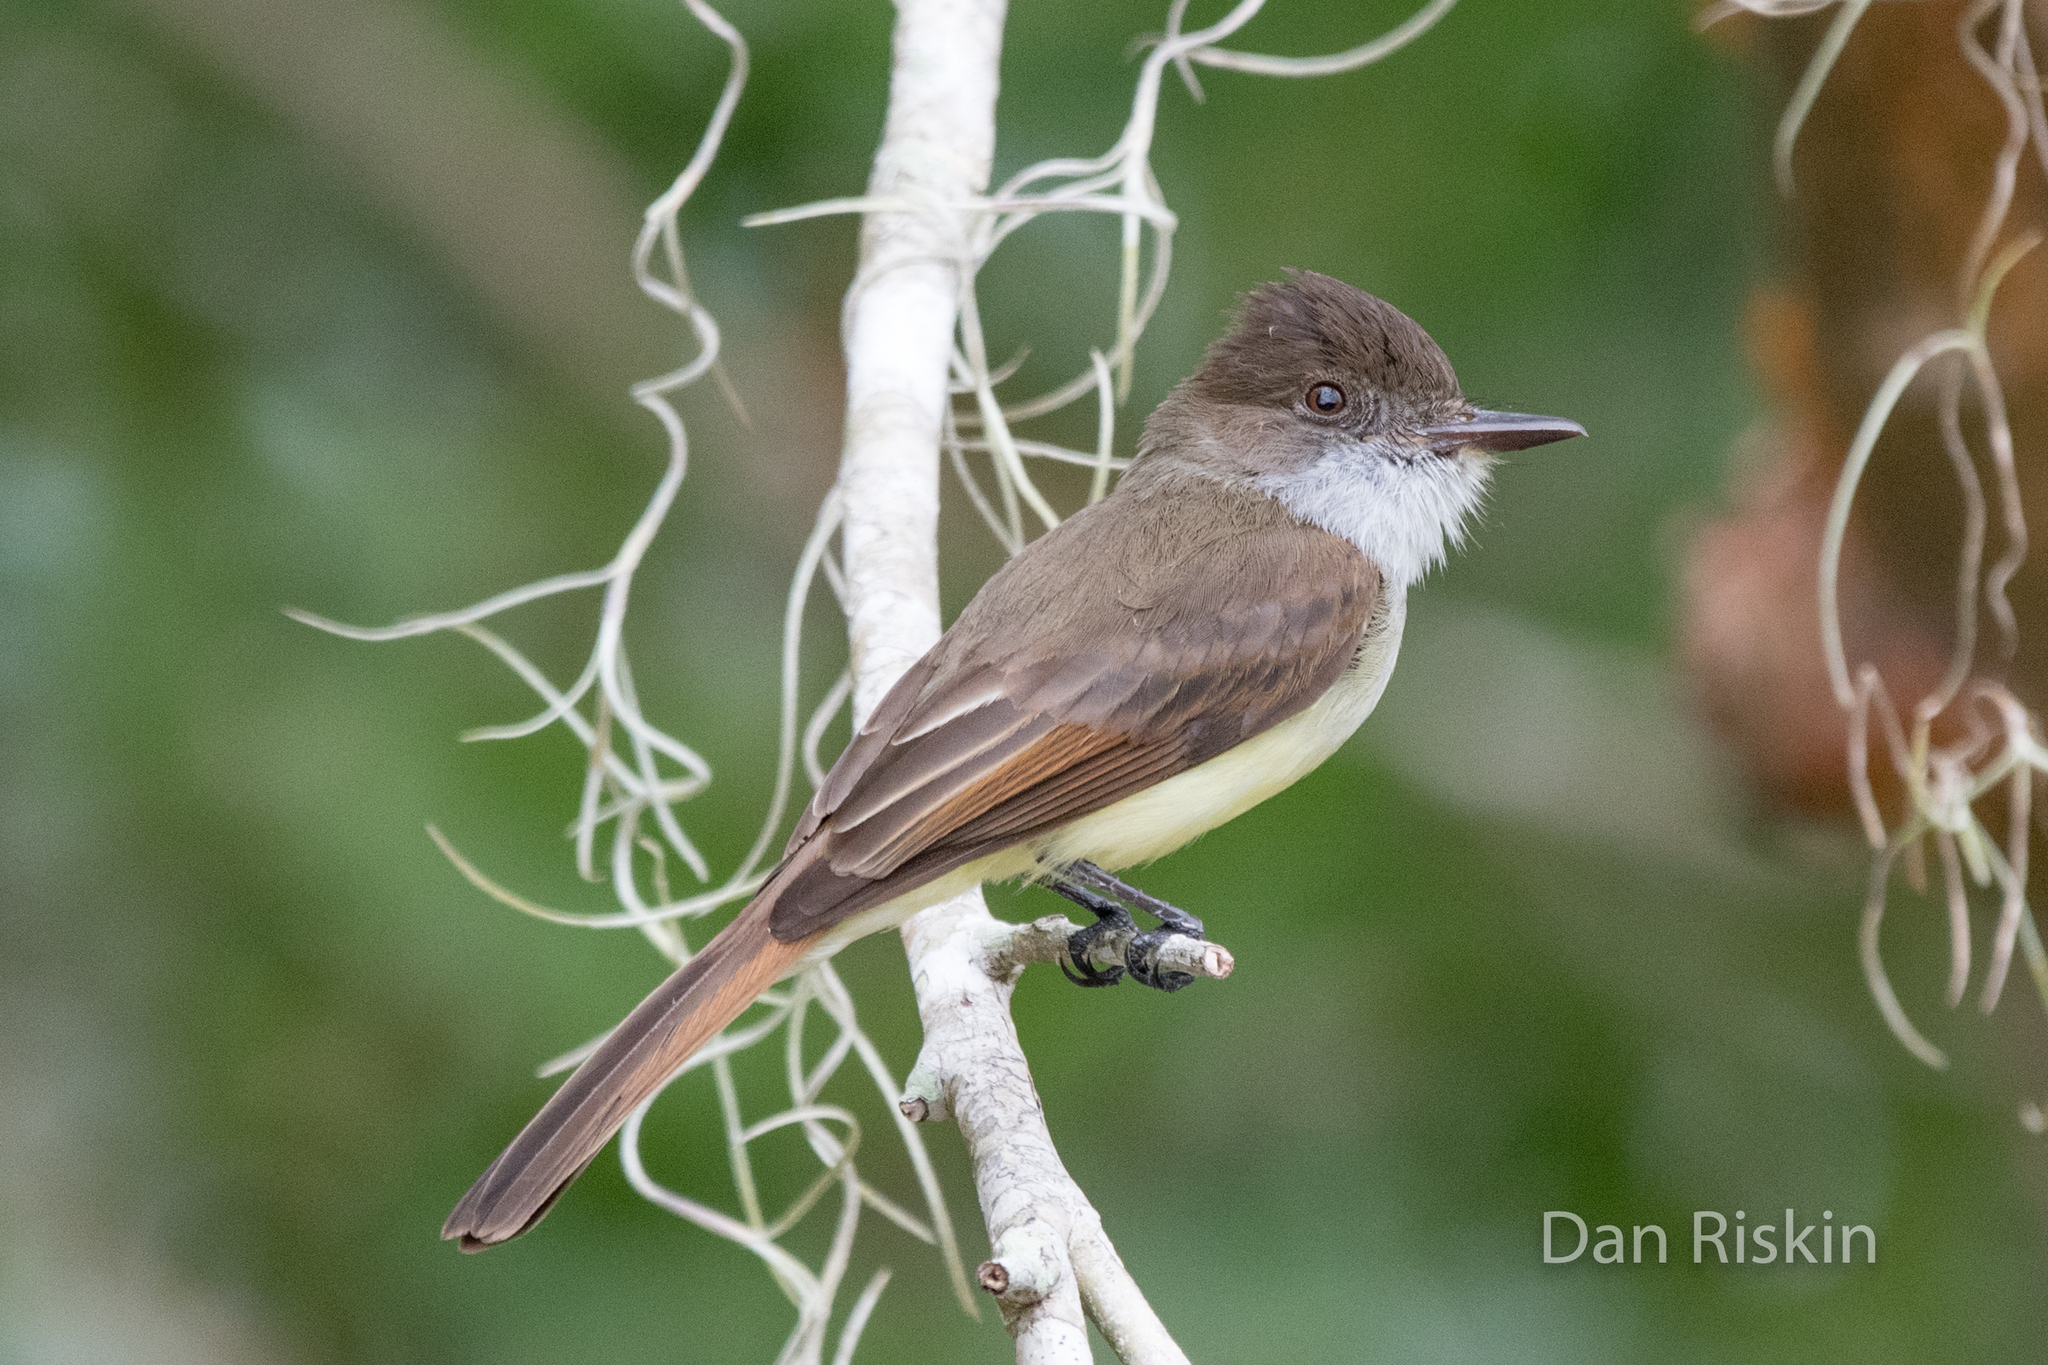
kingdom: Animalia
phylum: Chordata
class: Aves
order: Passeriformes
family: Tyrannidae
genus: Myiarchus
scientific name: Myiarchus tuberculifer
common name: Dusky-capped flycatcher
